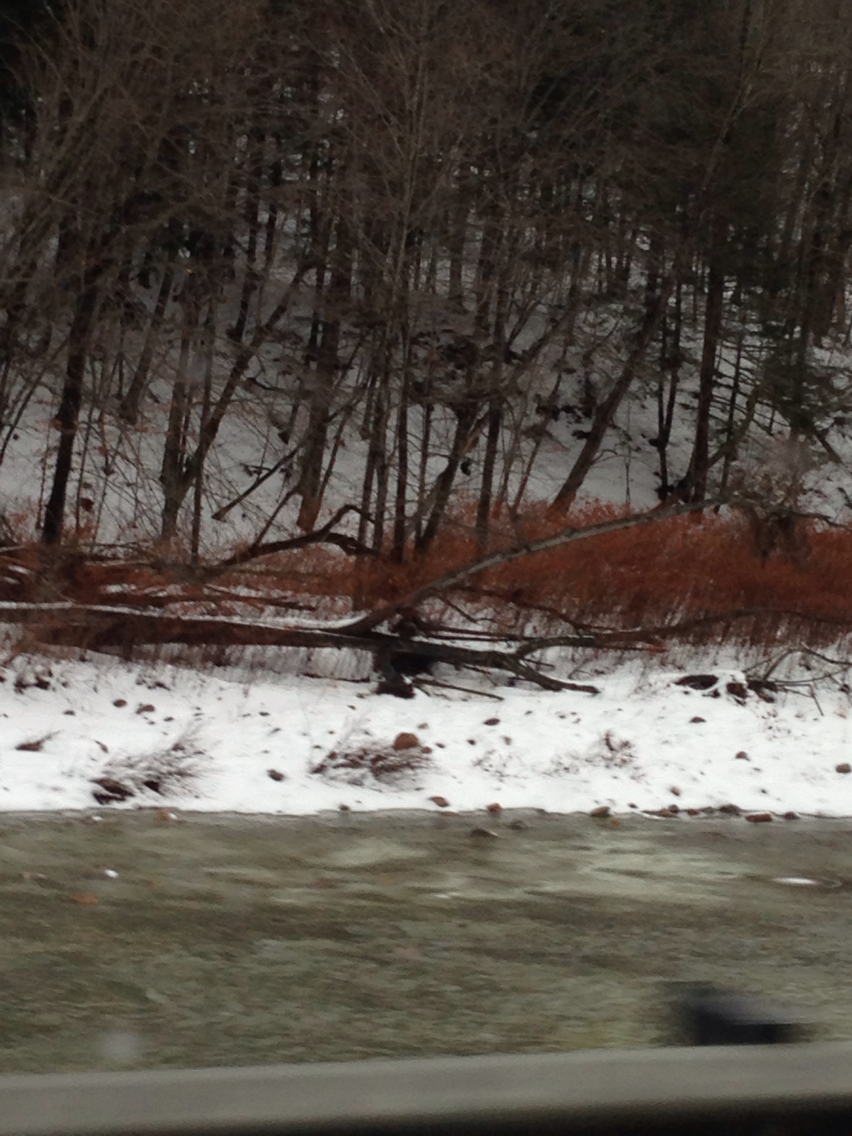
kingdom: Plantae
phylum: Tracheophyta
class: Magnoliopsida
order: Caryophyllales
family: Polygonaceae
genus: Reynoutria
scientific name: Reynoutria japonica
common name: Japanese knotweed
